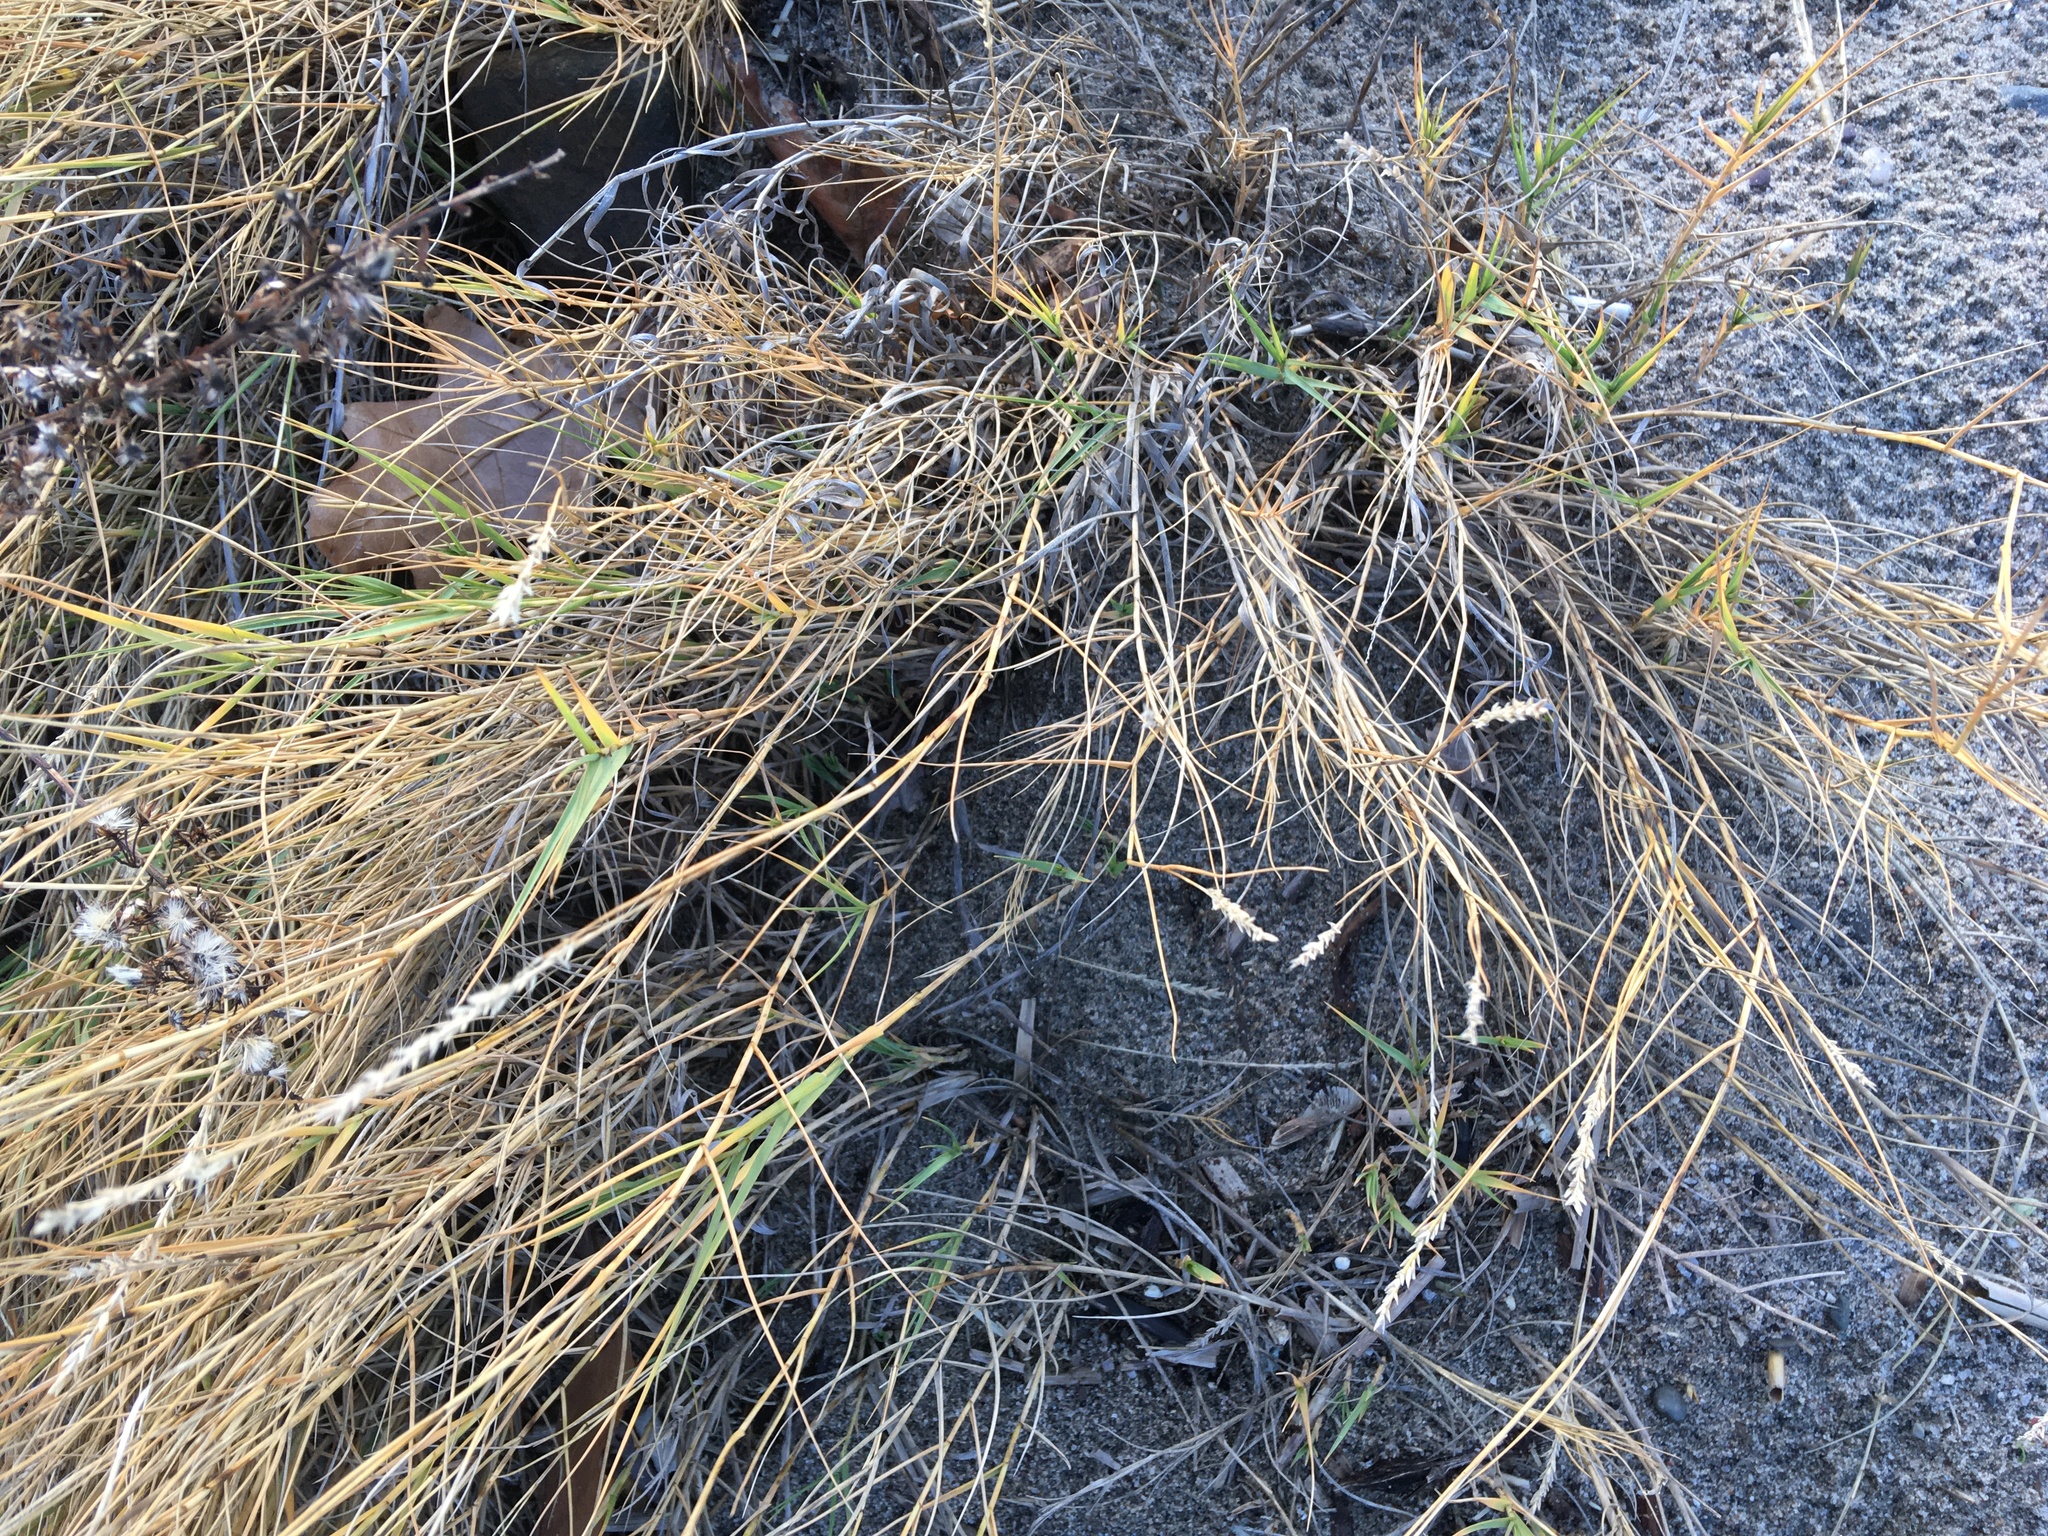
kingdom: Plantae
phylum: Tracheophyta
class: Liliopsida
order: Poales
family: Poaceae
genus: Distichlis
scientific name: Distichlis spicata
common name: Saltgrass
